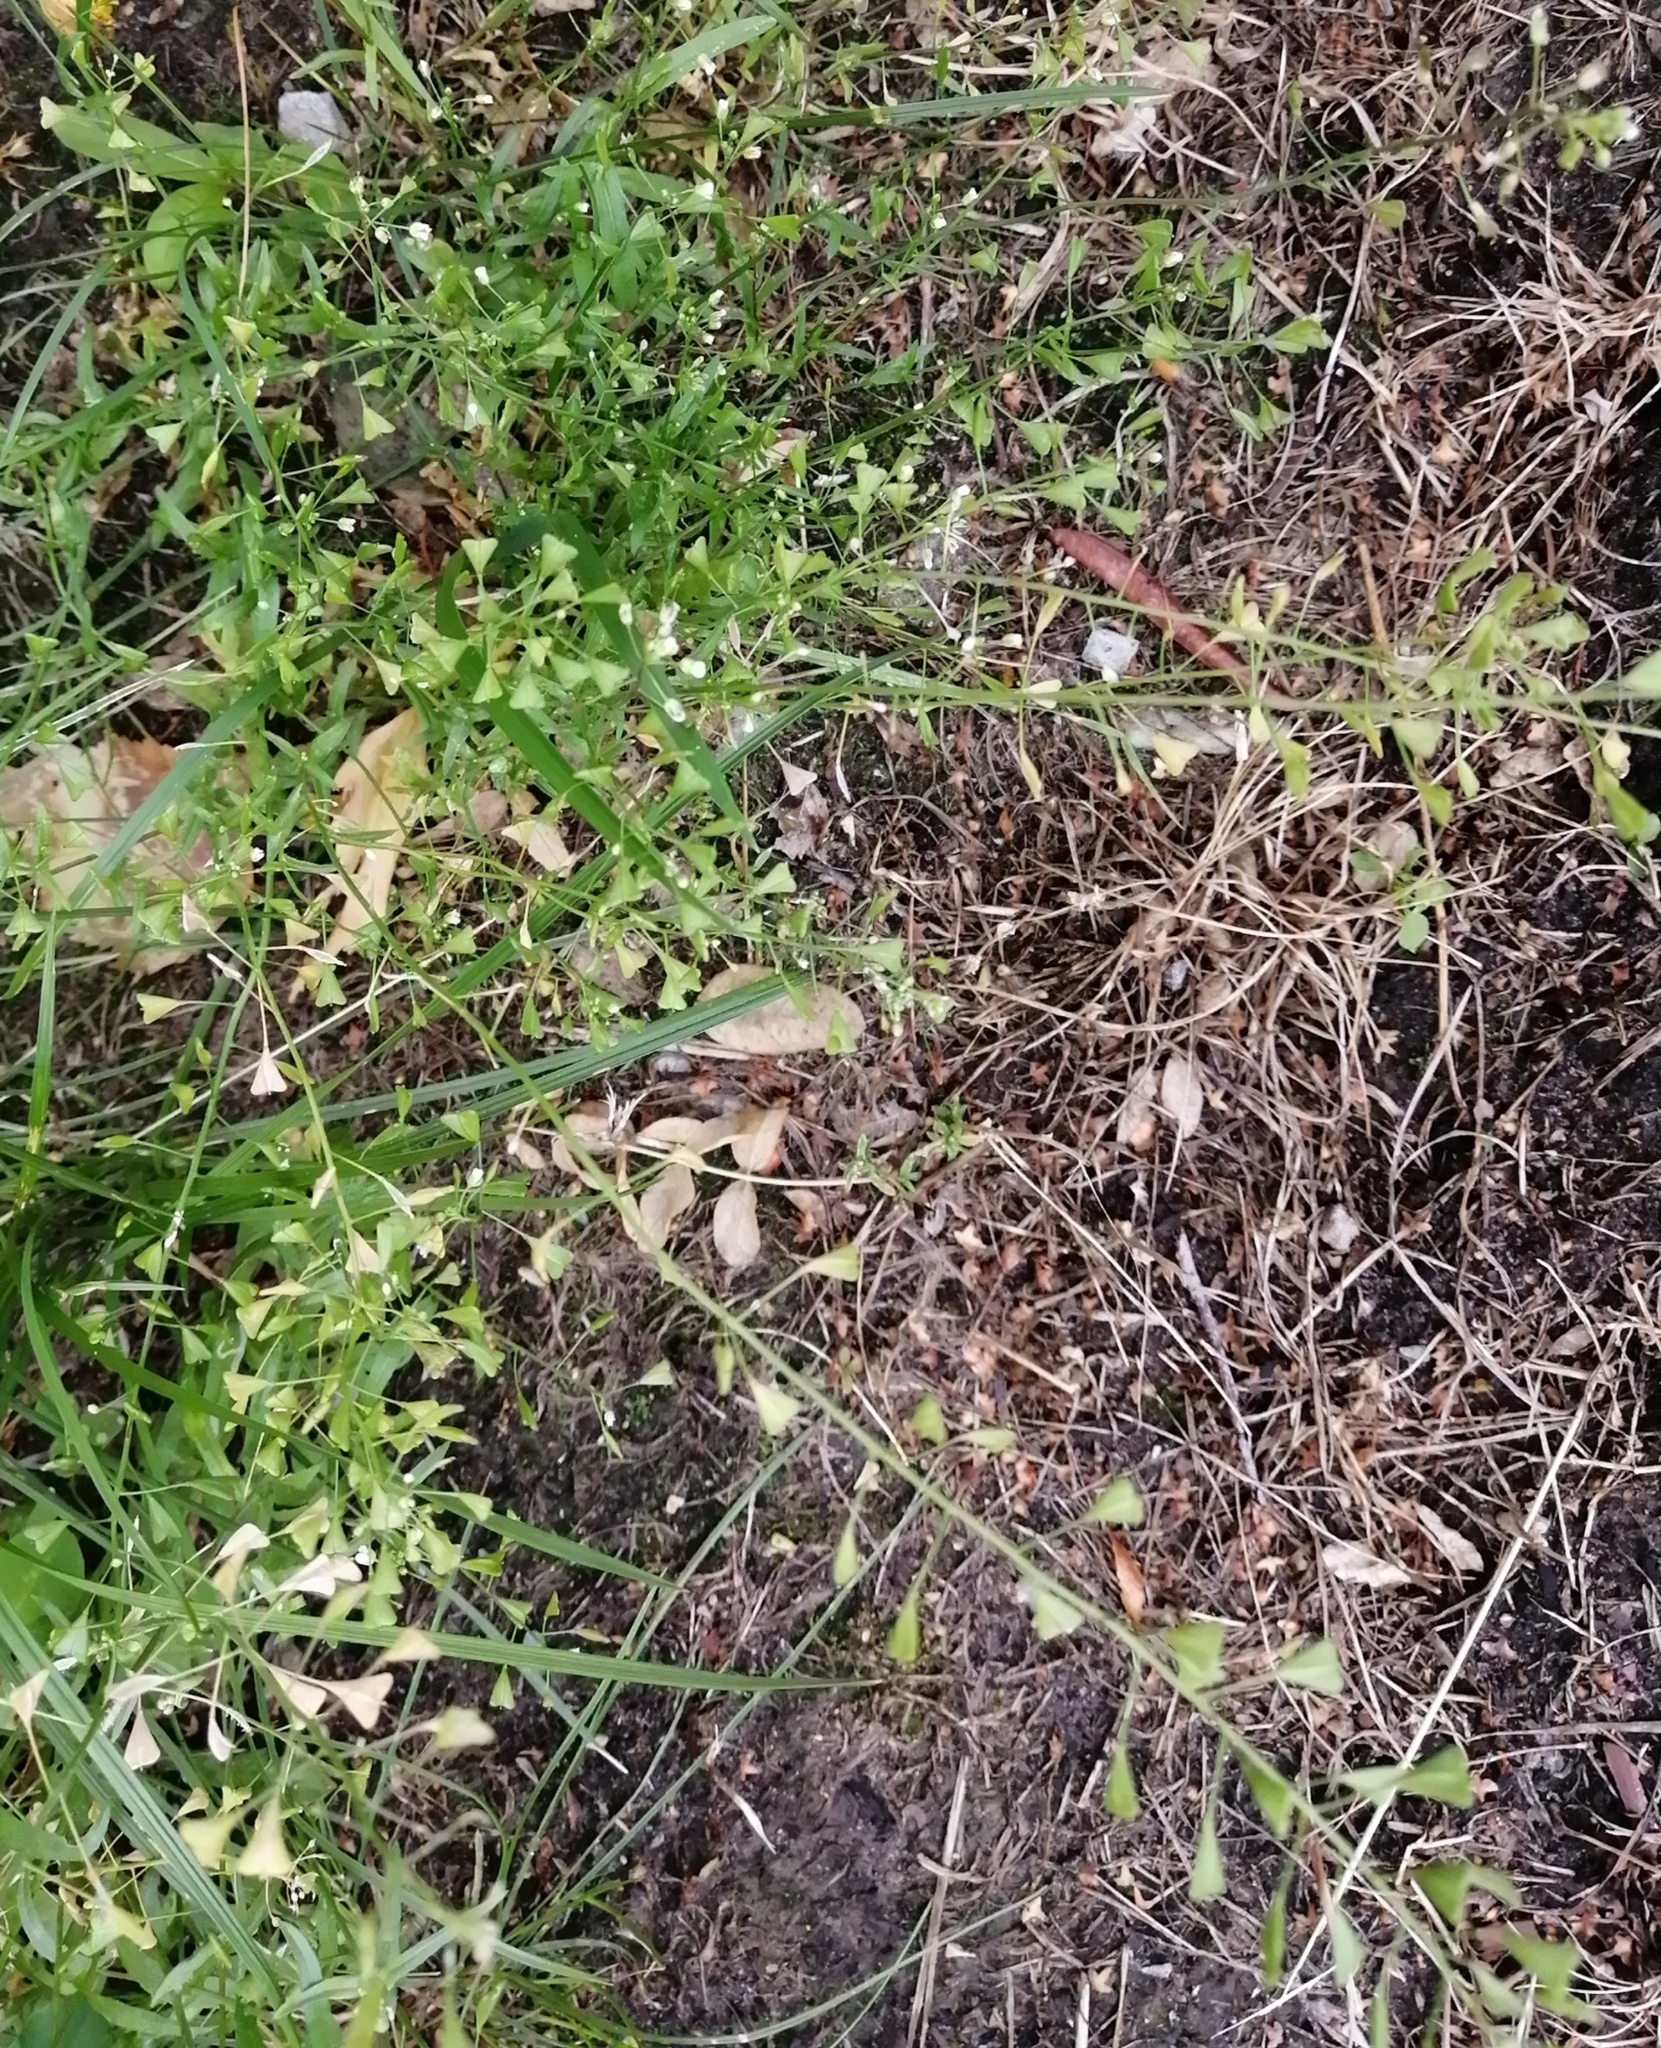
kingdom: Plantae
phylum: Tracheophyta
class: Magnoliopsida
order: Brassicales
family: Brassicaceae
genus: Capsella
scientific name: Capsella bursa-pastoris
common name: Shepherd's purse
